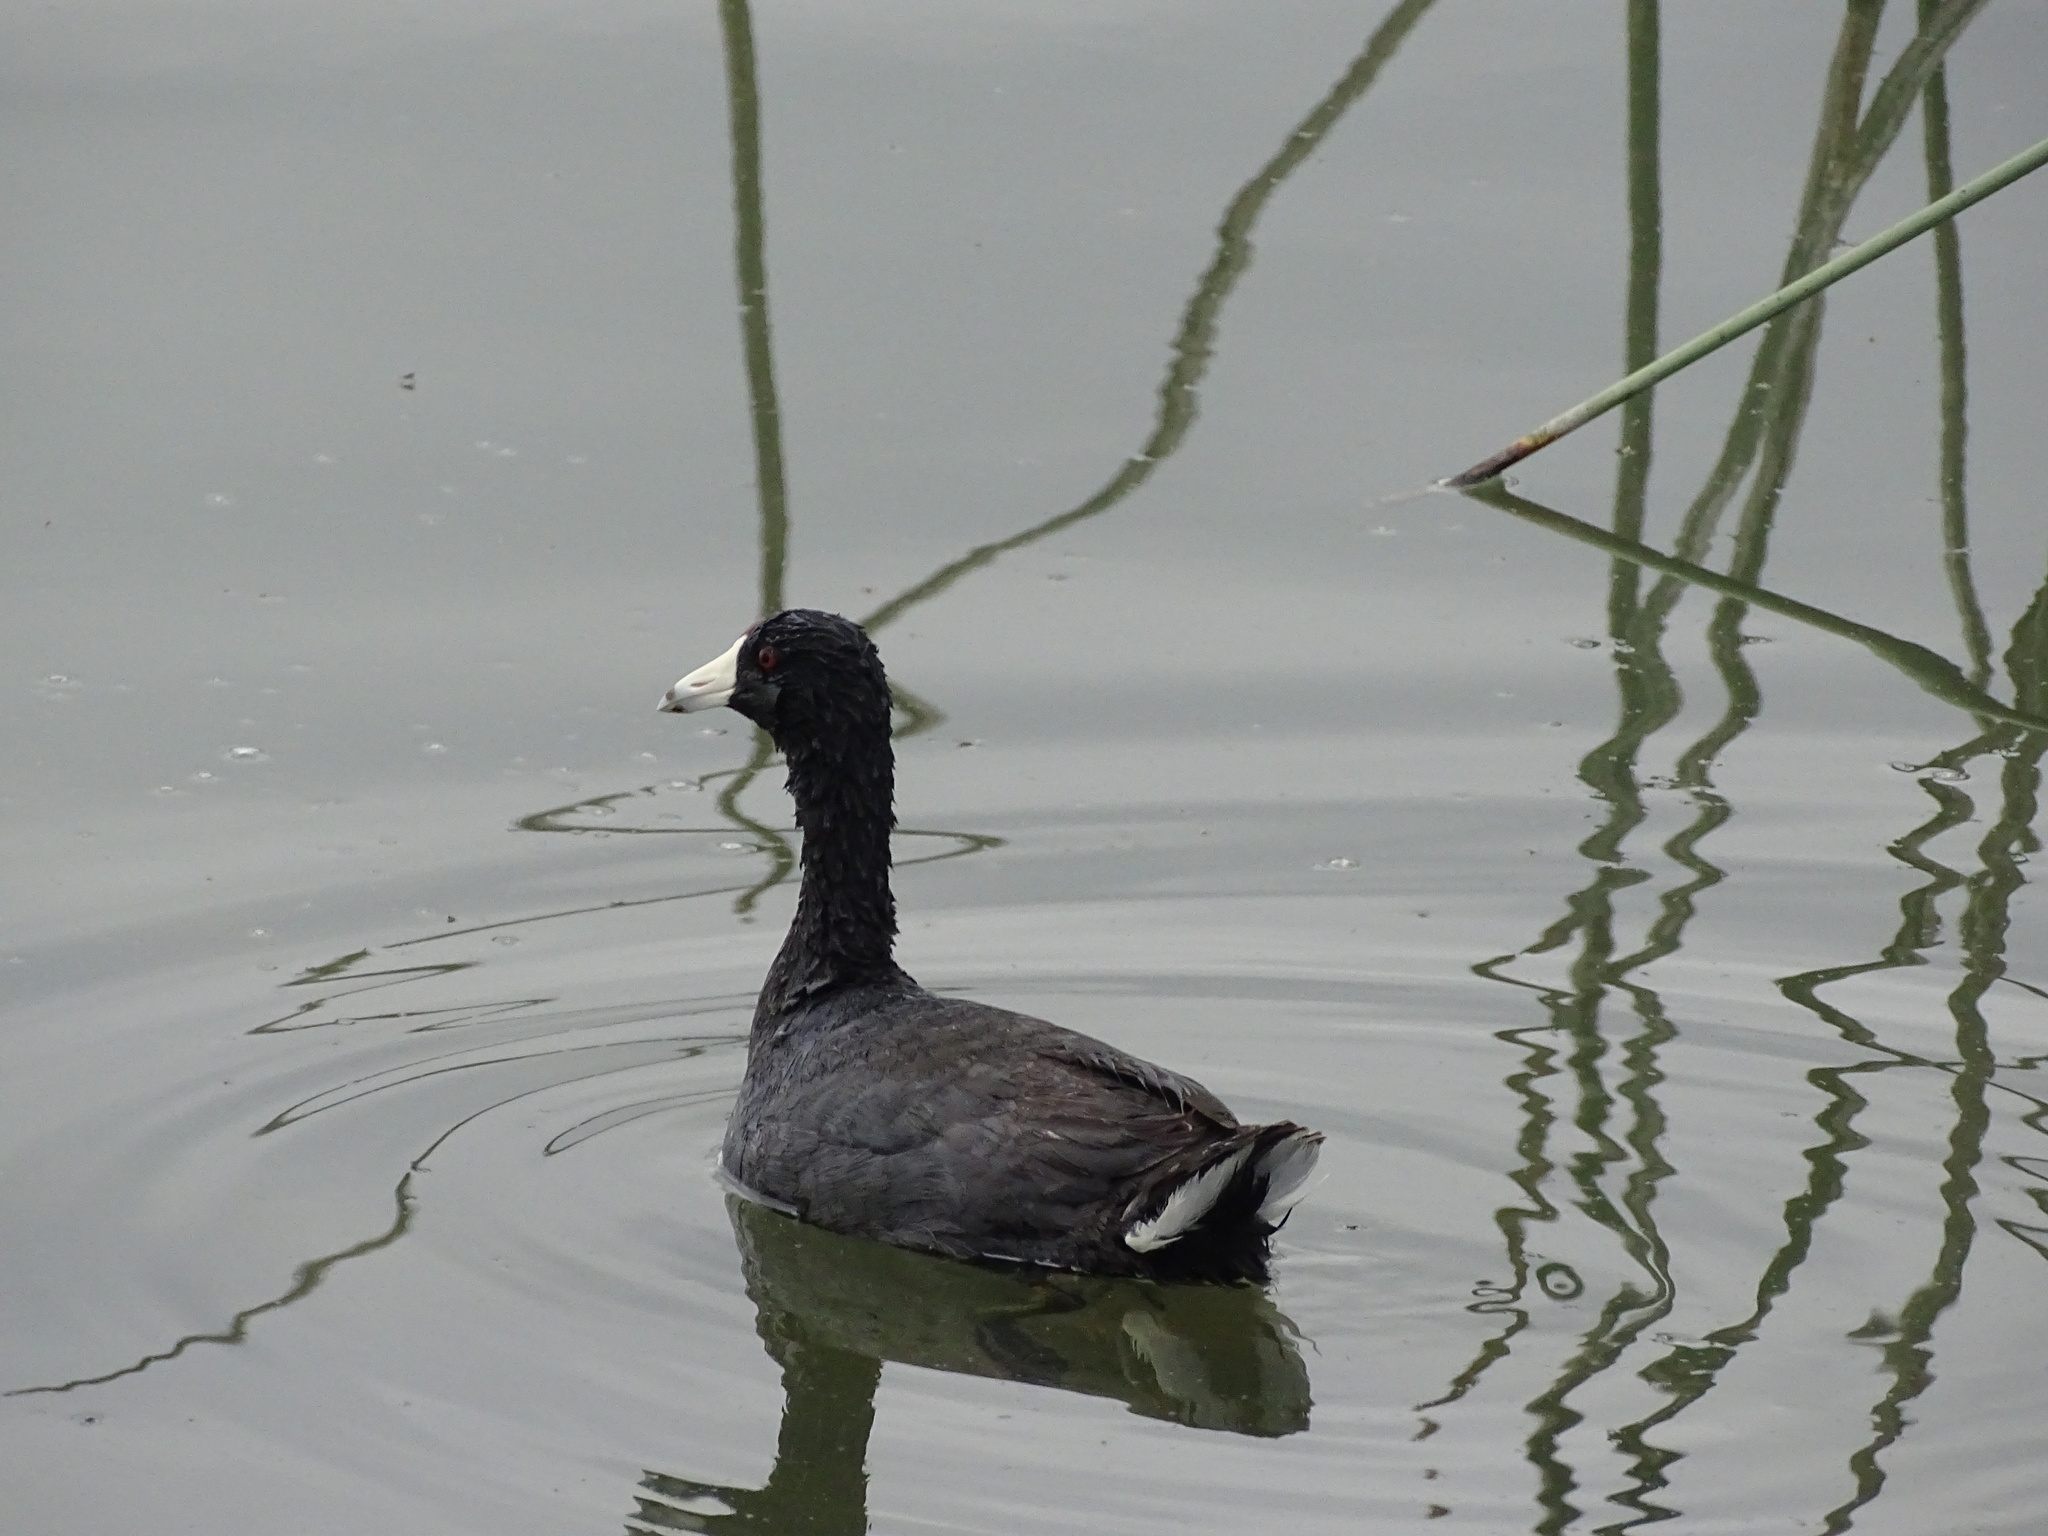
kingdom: Animalia
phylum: Chordata
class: Aves
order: Gruiformes
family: Rallidae
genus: Fulica
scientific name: Fulica americana
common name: American coot
